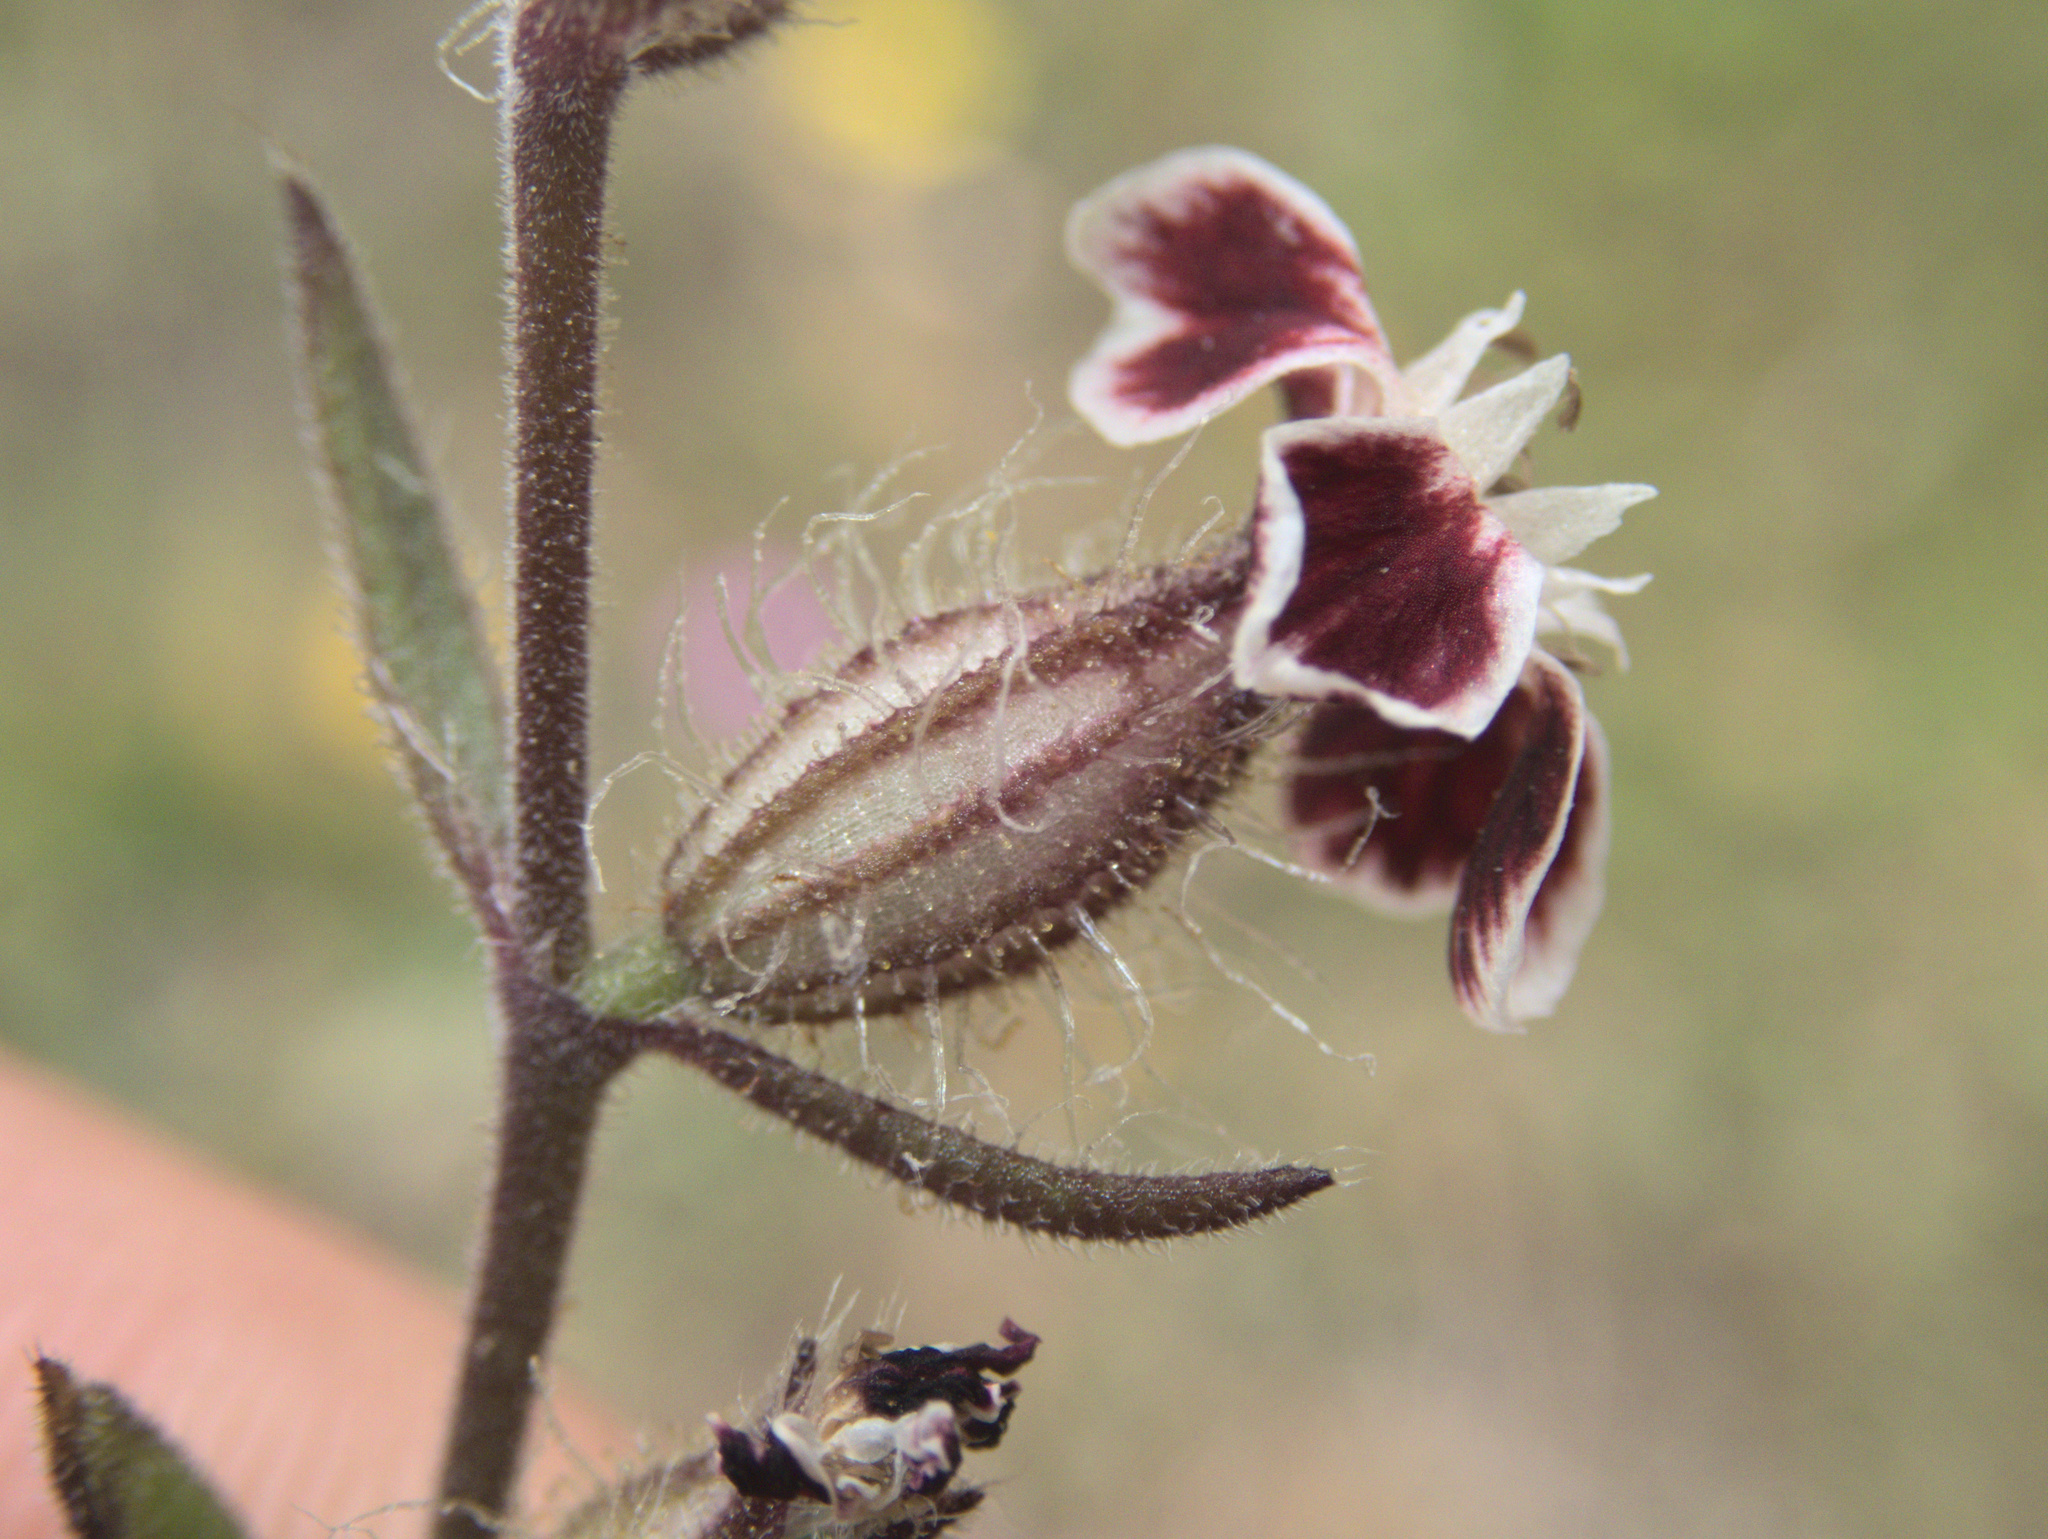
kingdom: Plantae
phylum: Tracheophyta
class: Magnoliopsida
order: Caryophyllales
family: Caryophyllaceae
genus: Silene
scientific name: Silene gallica
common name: Small-flowered catchfly
